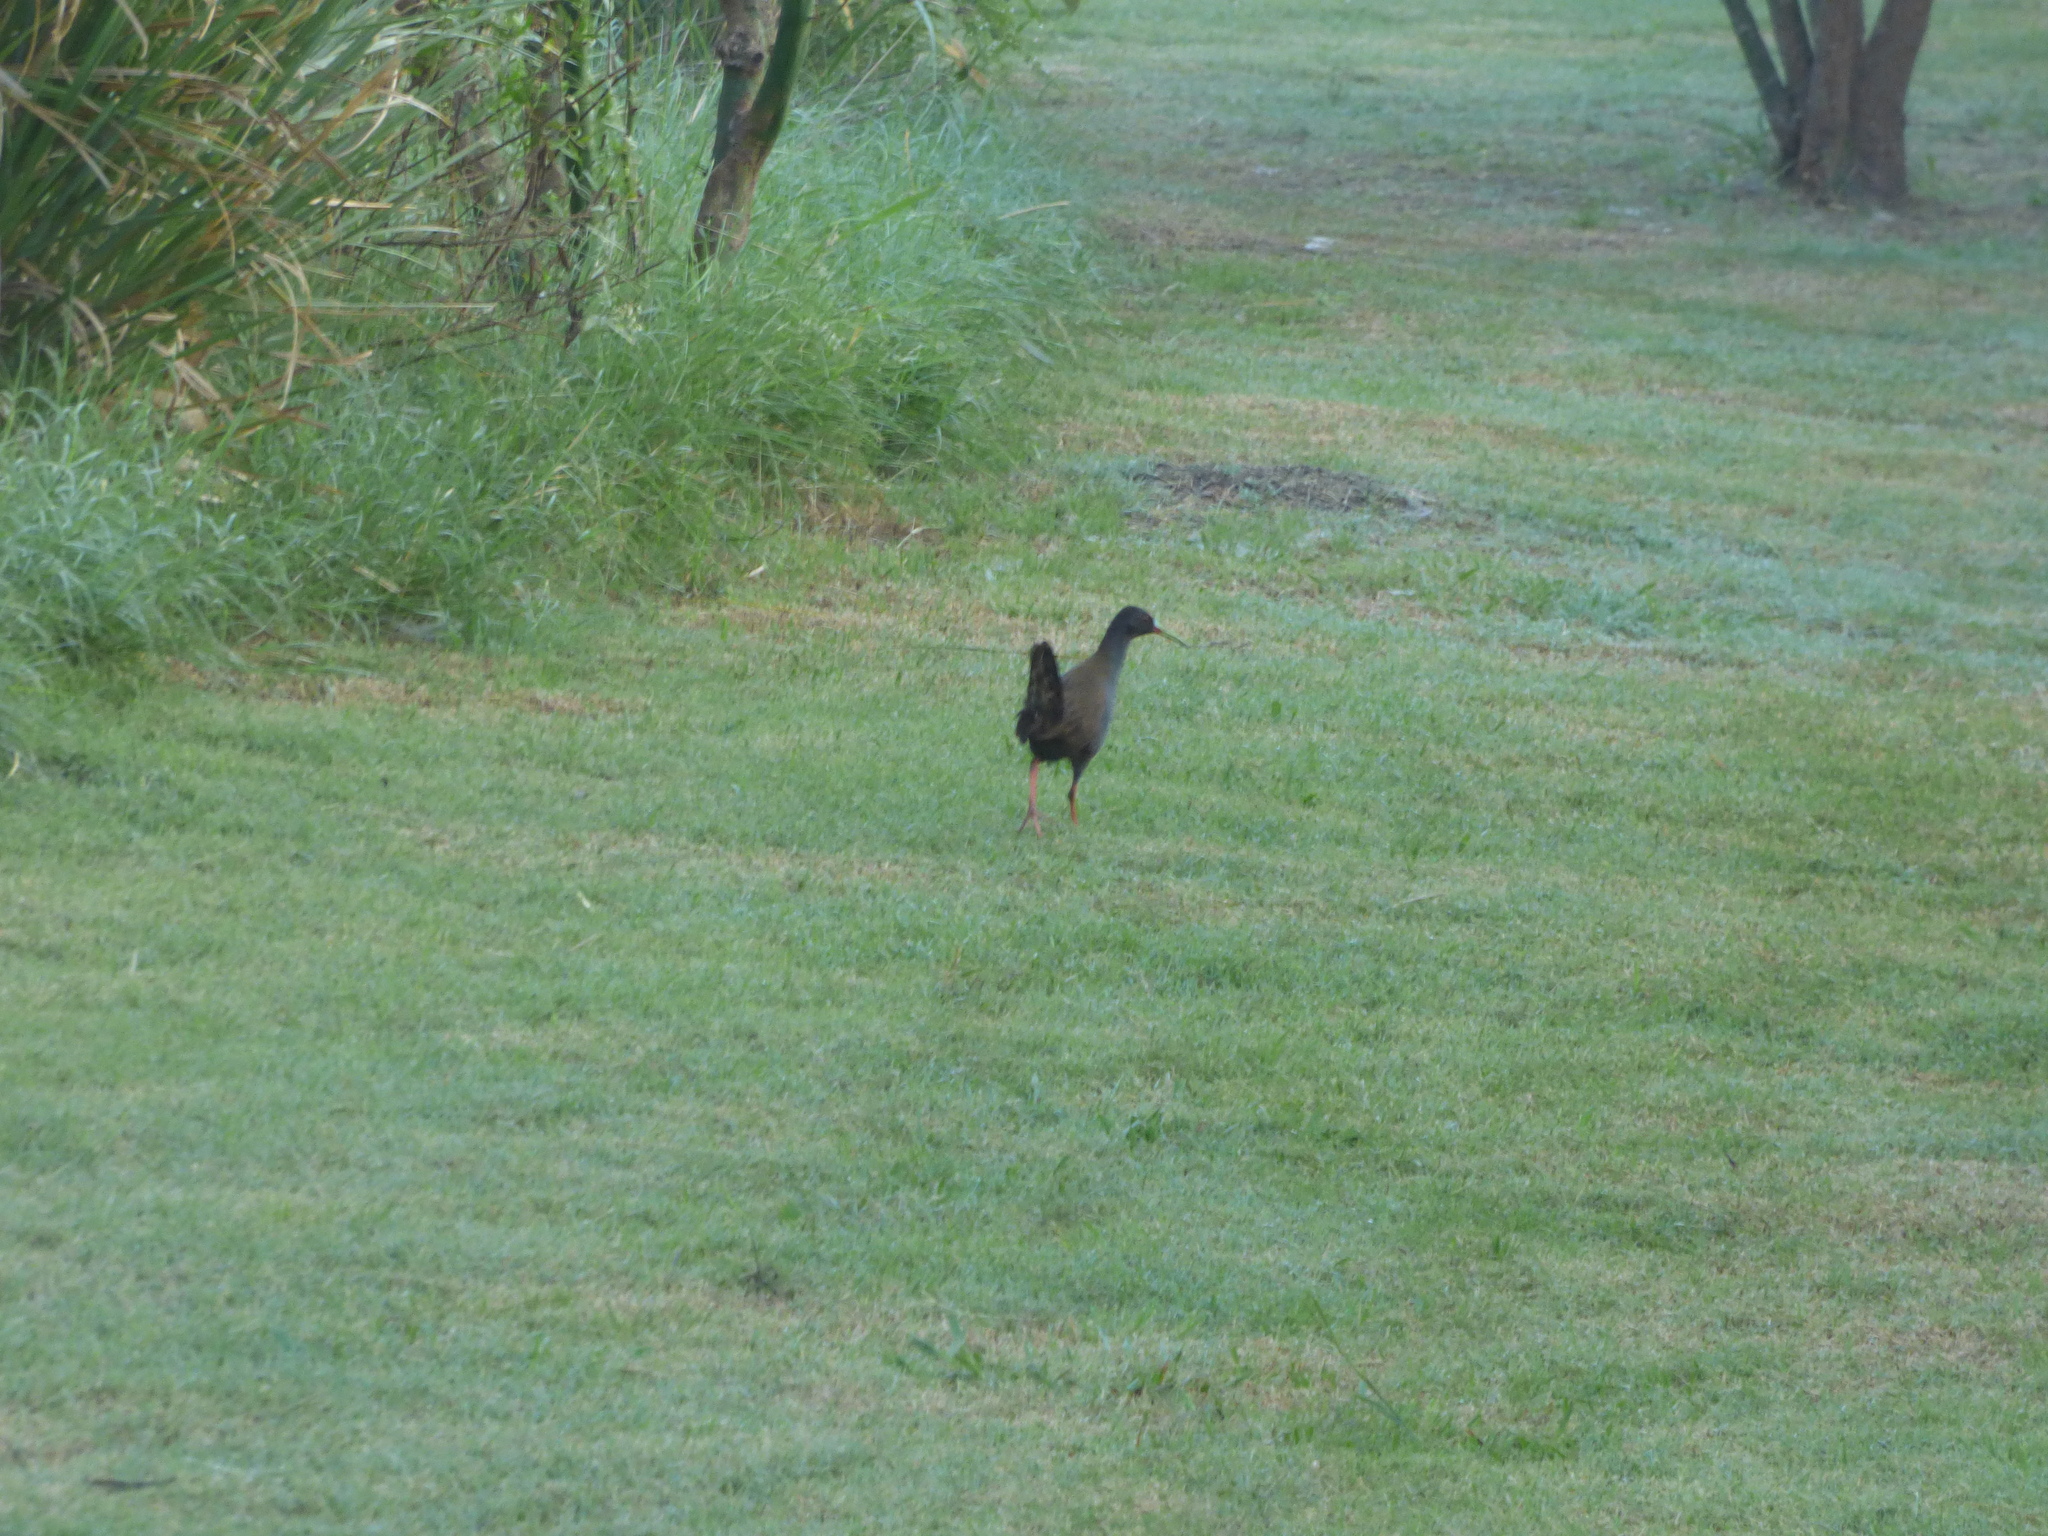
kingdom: Animalia
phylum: Chordata
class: Aves
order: Gruiformes
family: Rallidae
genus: Pardirallus
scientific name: Pardirallus sanguinolentus
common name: Plumbeous rail
